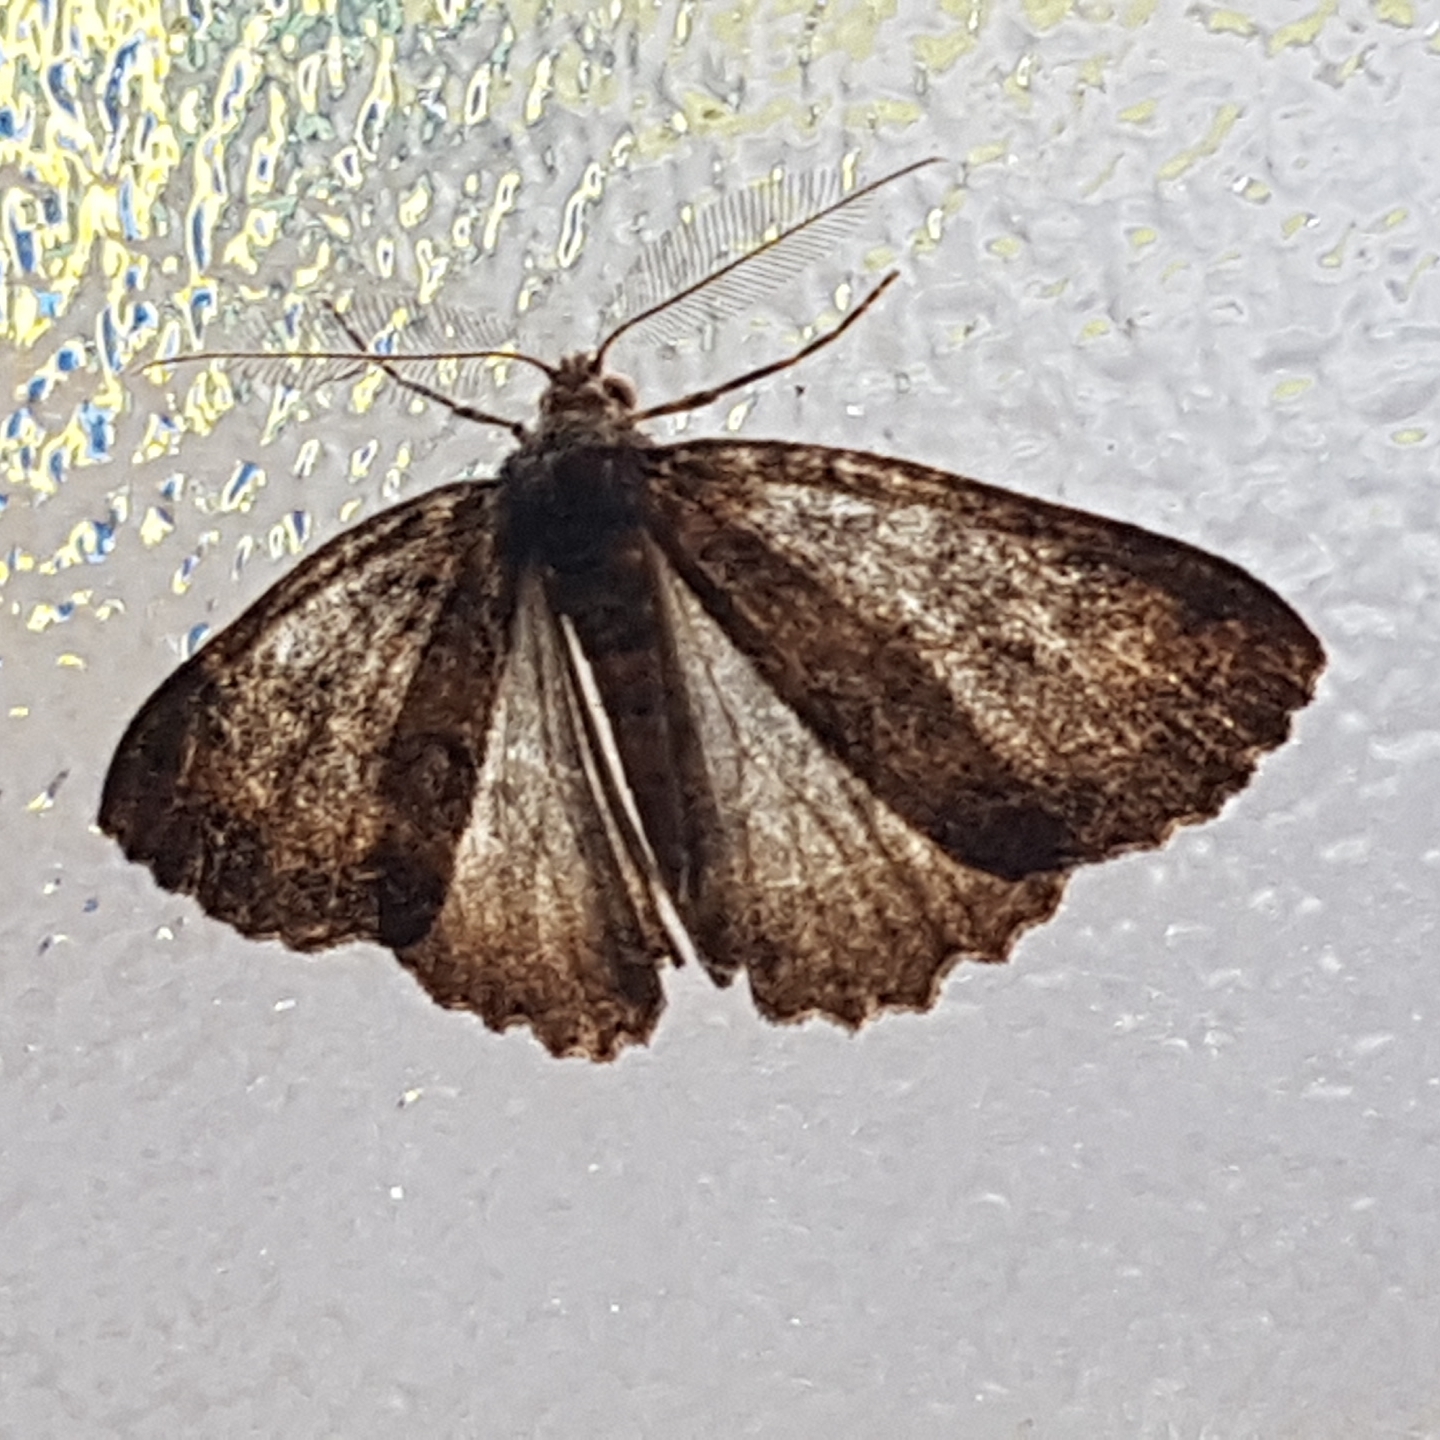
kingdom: Animalia
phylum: Arthropoda
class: Insecta
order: Lepidoptera
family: Geometridae
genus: Ascotis
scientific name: Ascotis fortunata
